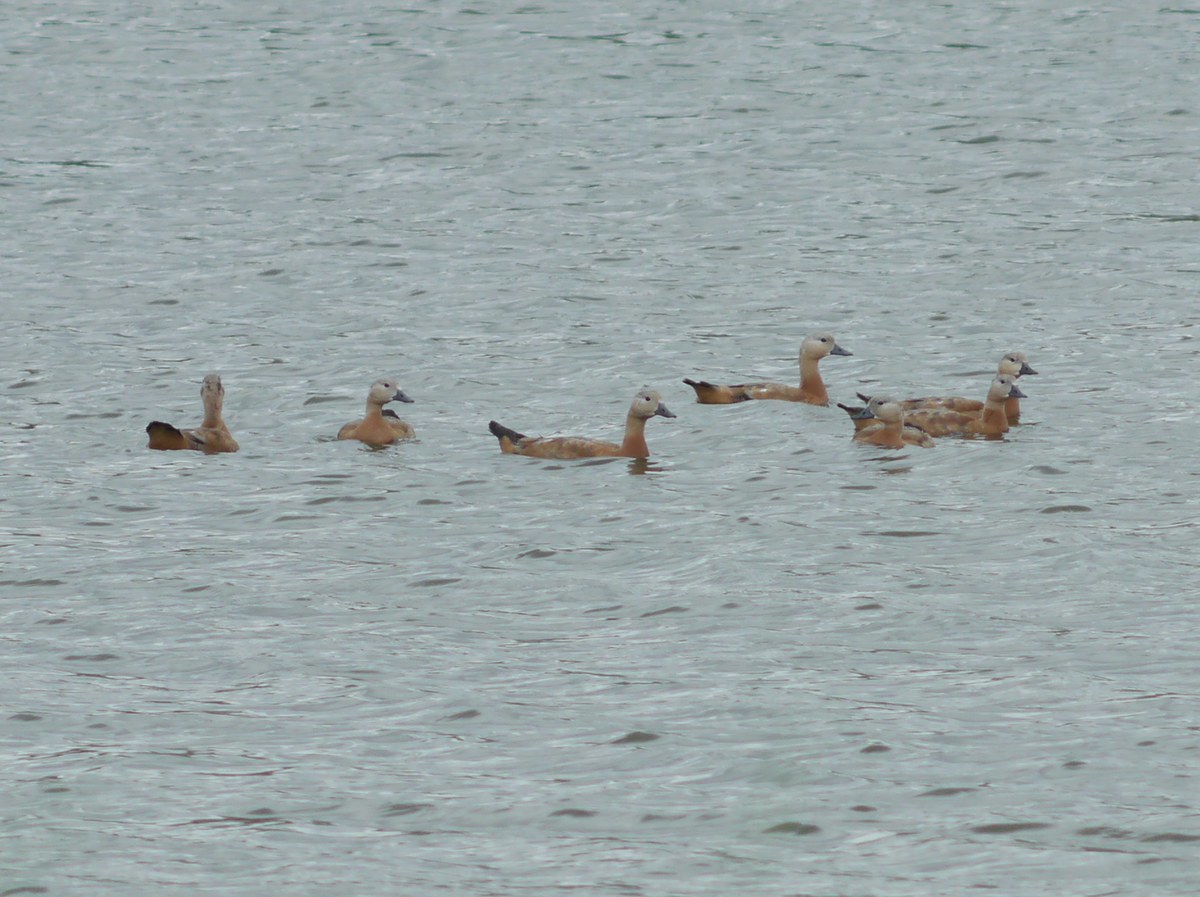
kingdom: Animalia
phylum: Chordata
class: Aves
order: Anseriformes
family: Anatidae
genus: Tadorna
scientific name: Tadorna ferruginea
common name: Ruddy shelduck
